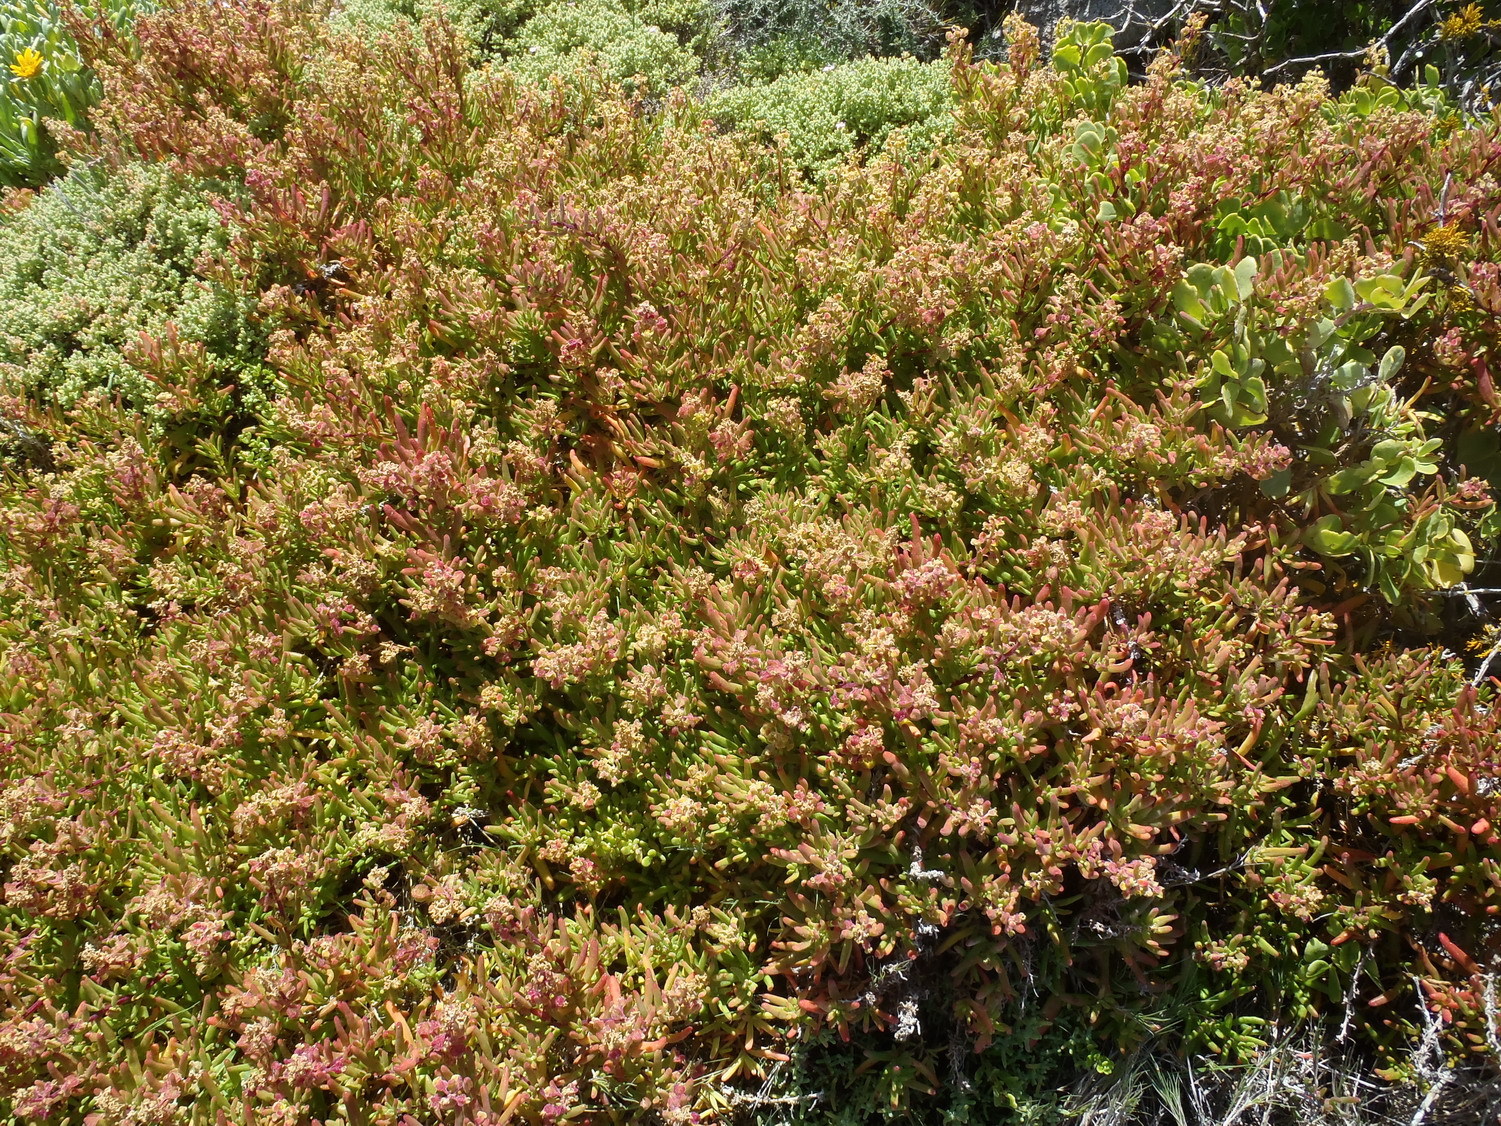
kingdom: Plantae
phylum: Tracheophyta
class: Magnoliopsida
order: Caryophyllales
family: Aizoaceae
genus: Tetragonia
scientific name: Tetragonia namaquensis
